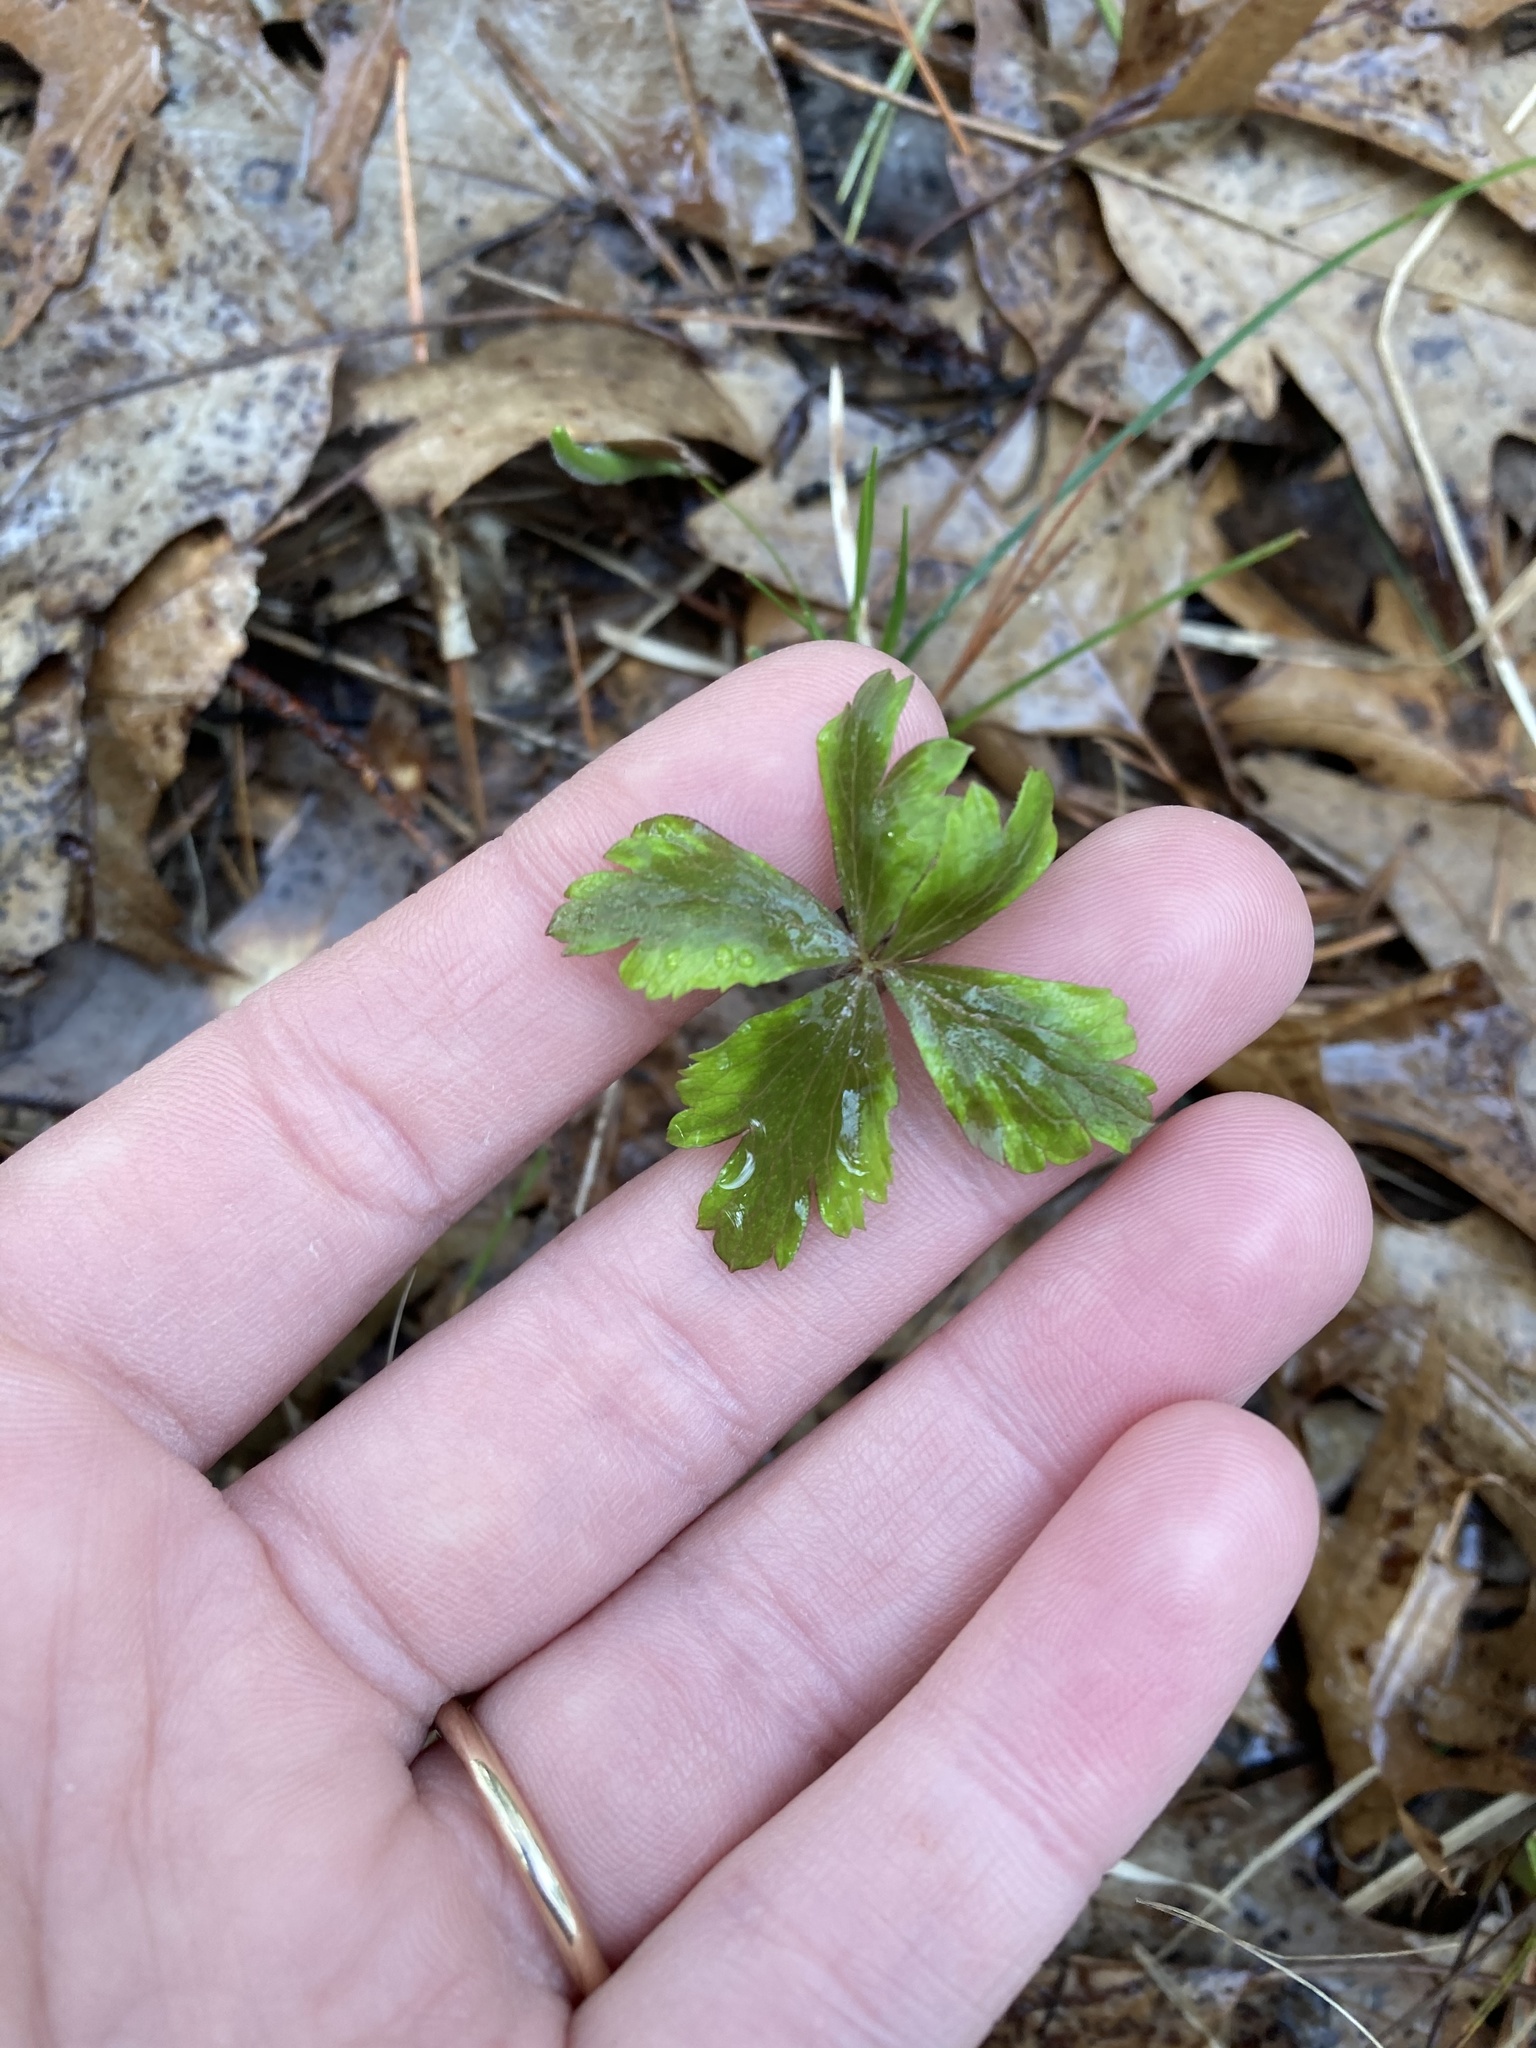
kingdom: Plantae
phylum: Tracheophyta
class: Magnoliopsida
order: Ranunculales
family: Ranunculaceae
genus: Anemone
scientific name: Anemone quinquefolia
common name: Wood anemone
